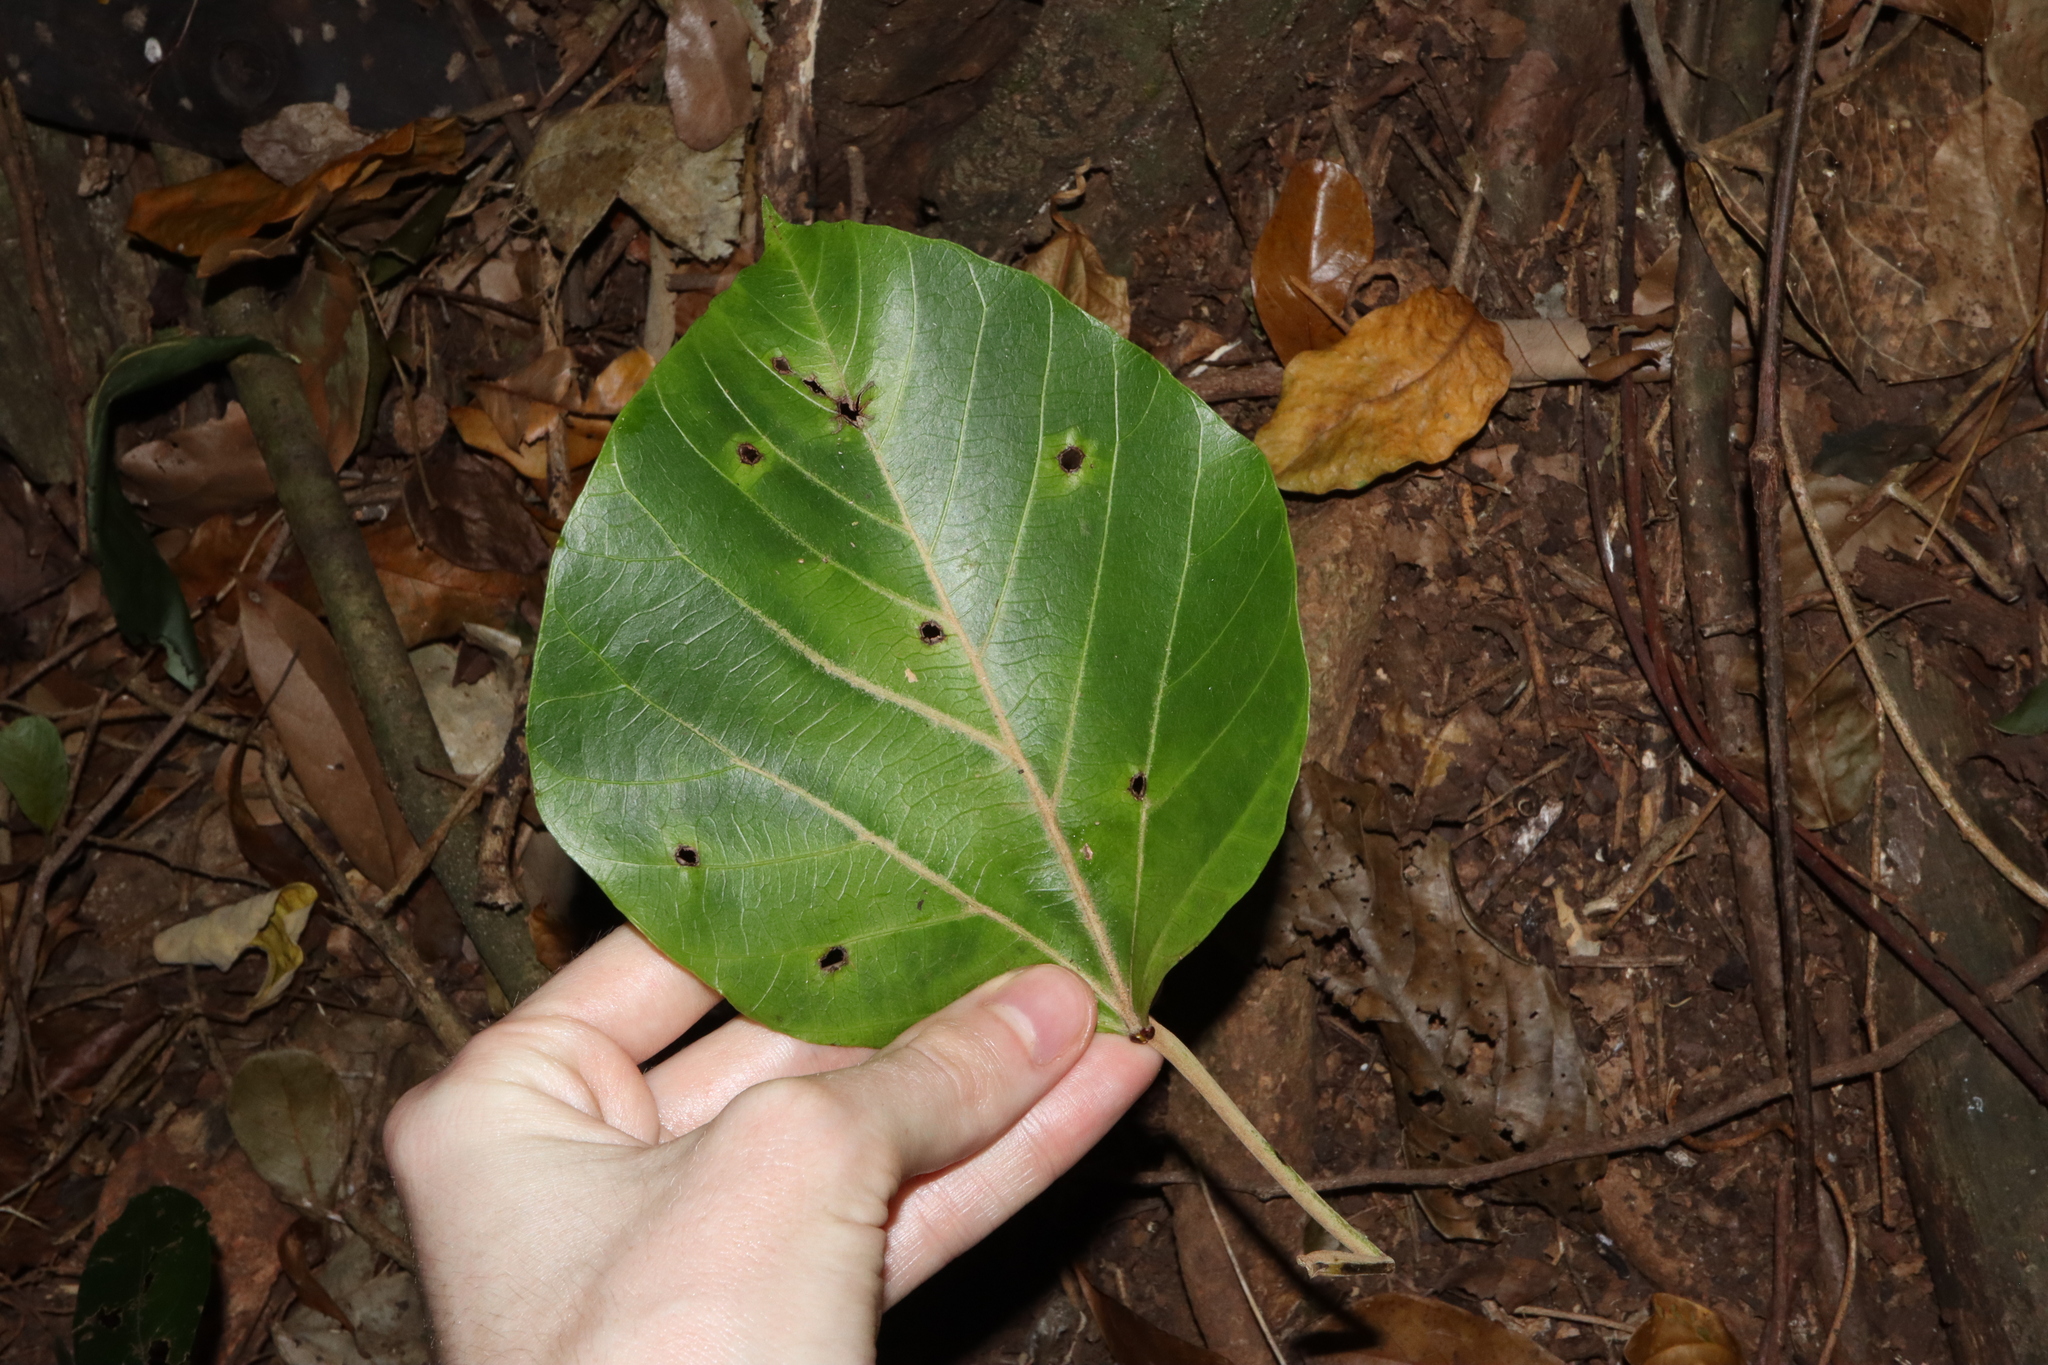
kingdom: Plantae
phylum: Tracheophyta
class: Magnoliopsida
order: Malpighiales
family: Euphorbiaceae
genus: Aleurites
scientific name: Aleurites rockinghamensis
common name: Candelnut
